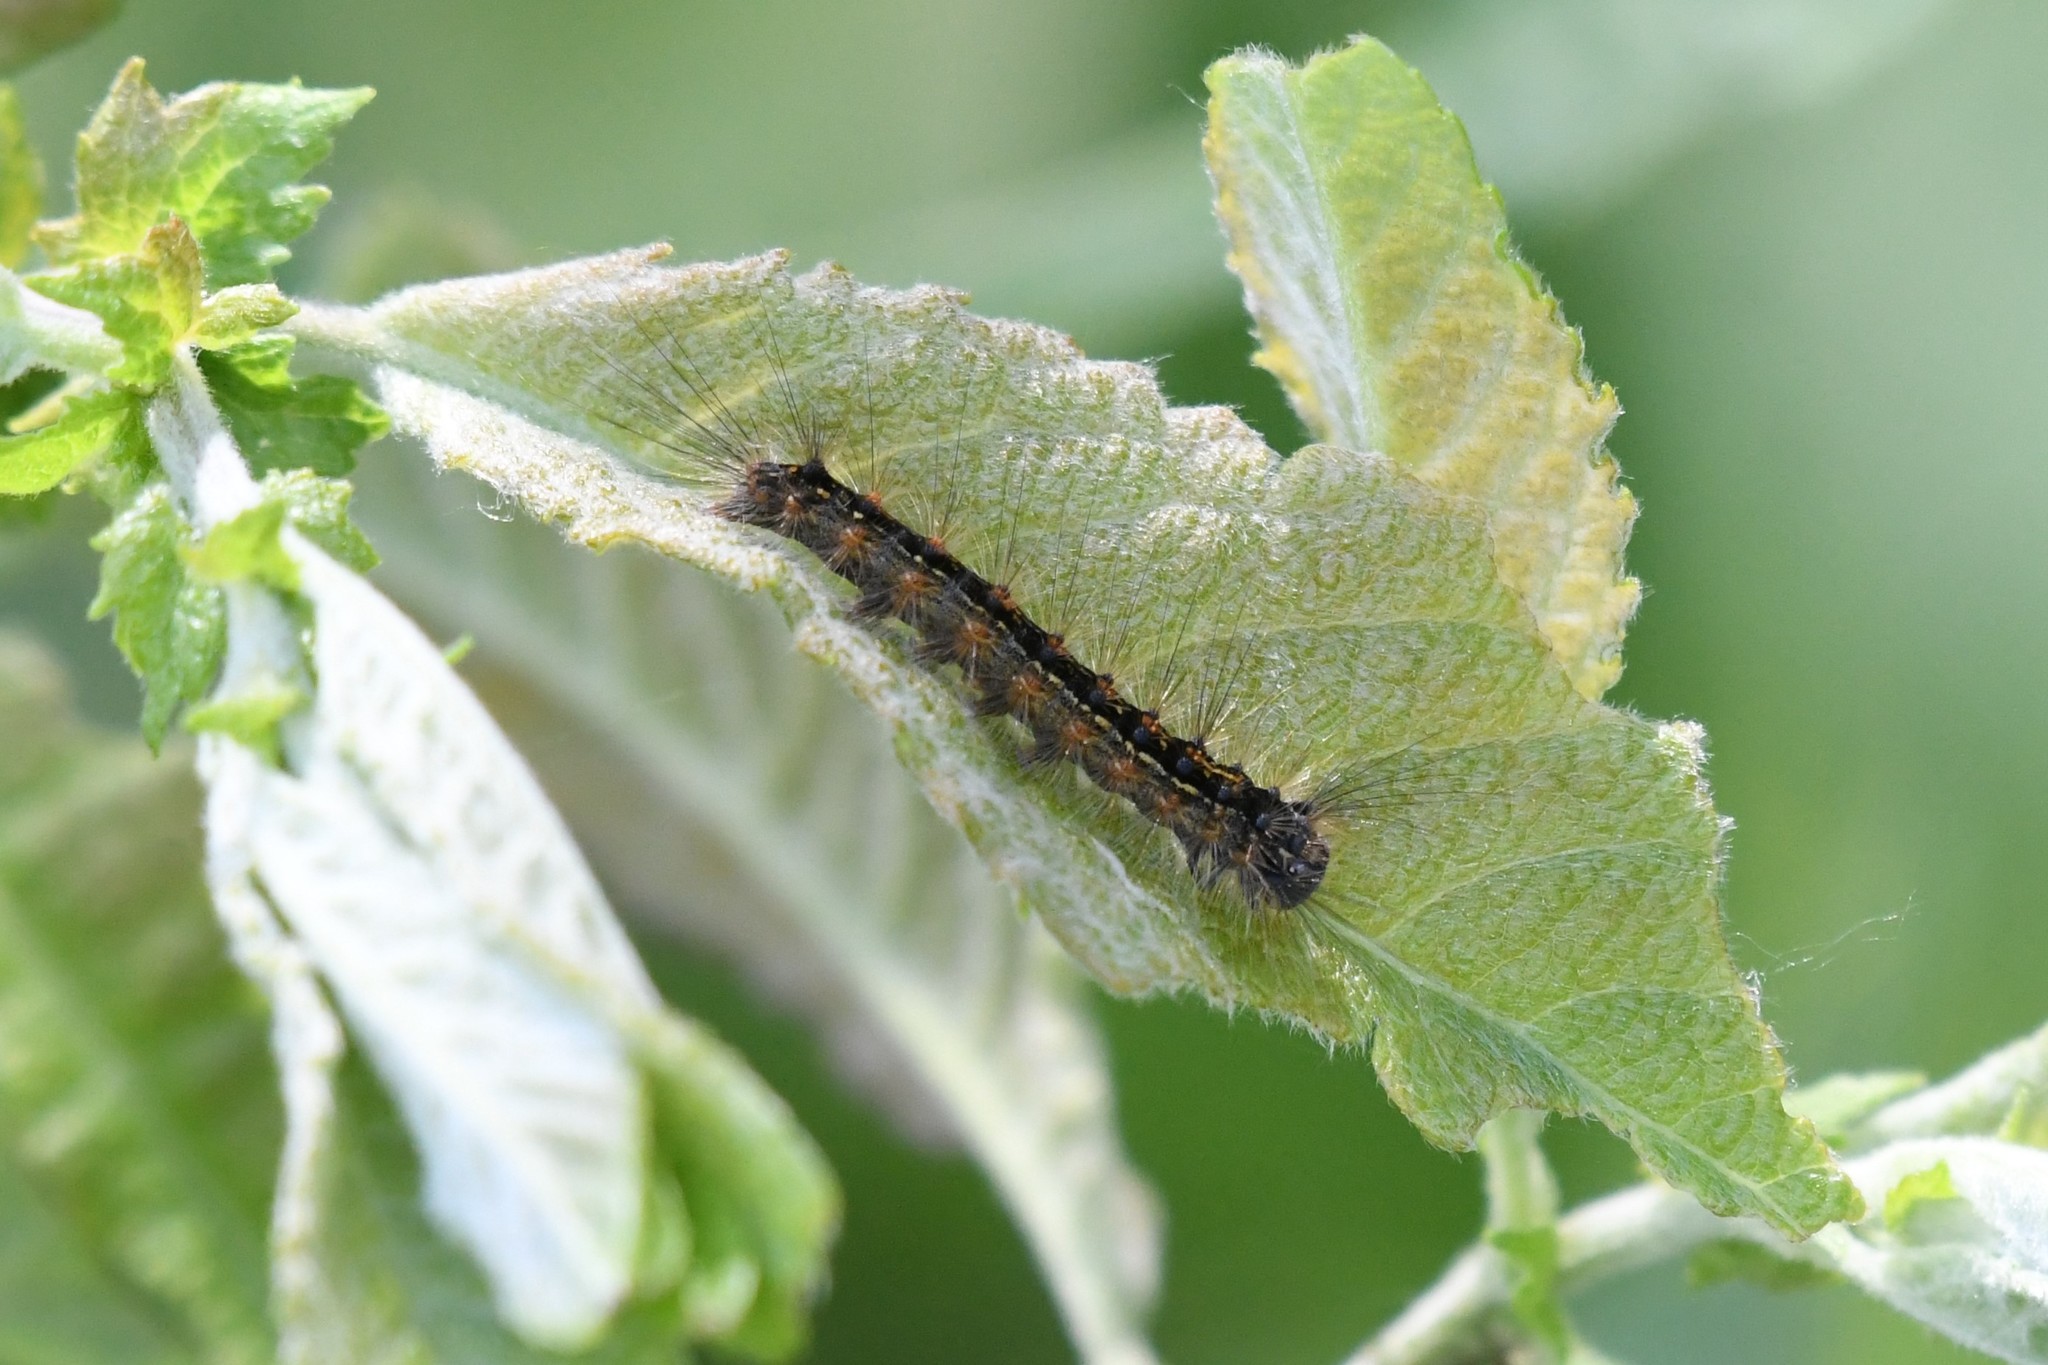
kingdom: Animalia
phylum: Arthropoda
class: Insecta
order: Lepidoptera
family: Erebidae
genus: Lymantria
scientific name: Lymantria dispar
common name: Gypsy moth
